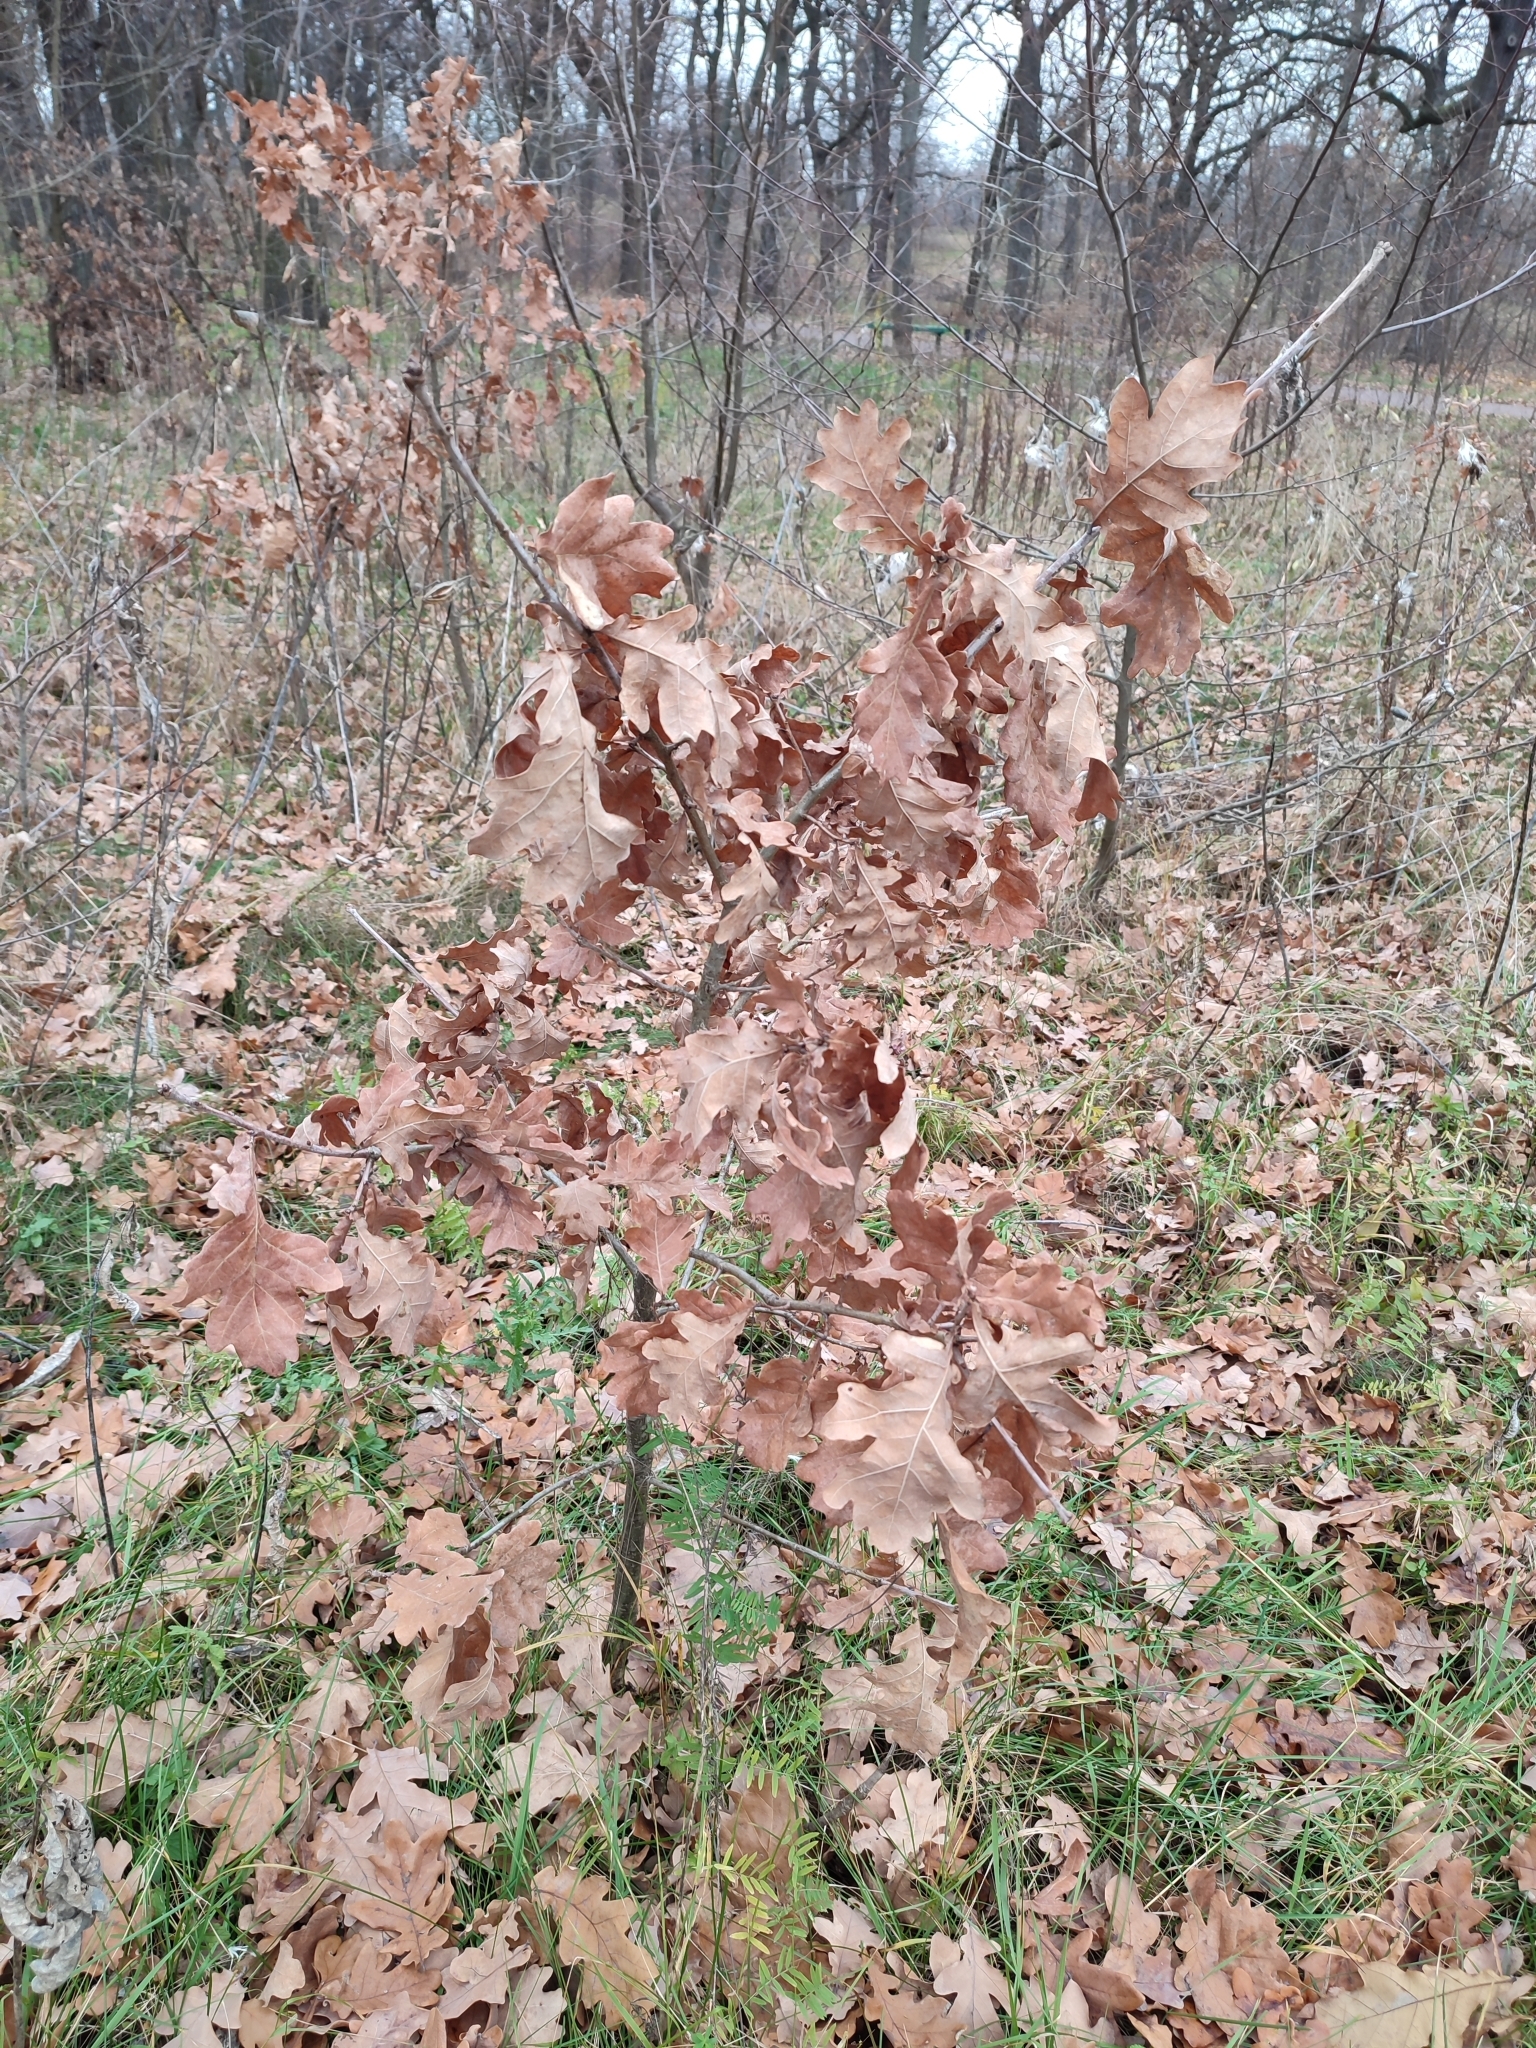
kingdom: Plantae
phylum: Tracheophyta
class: Magnoliopsida
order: Fagales
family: Fagaceae
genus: Quercus
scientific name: Quercus robur
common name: Pedunculate oak
